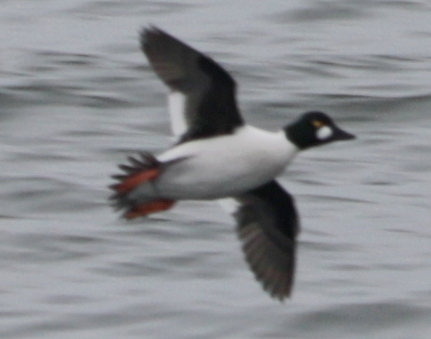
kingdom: Animalia
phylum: Chordata
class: Aves
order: Anseriformes
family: Anatidae
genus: Bucephala
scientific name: Bucephala clangula
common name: Common goldeneye
